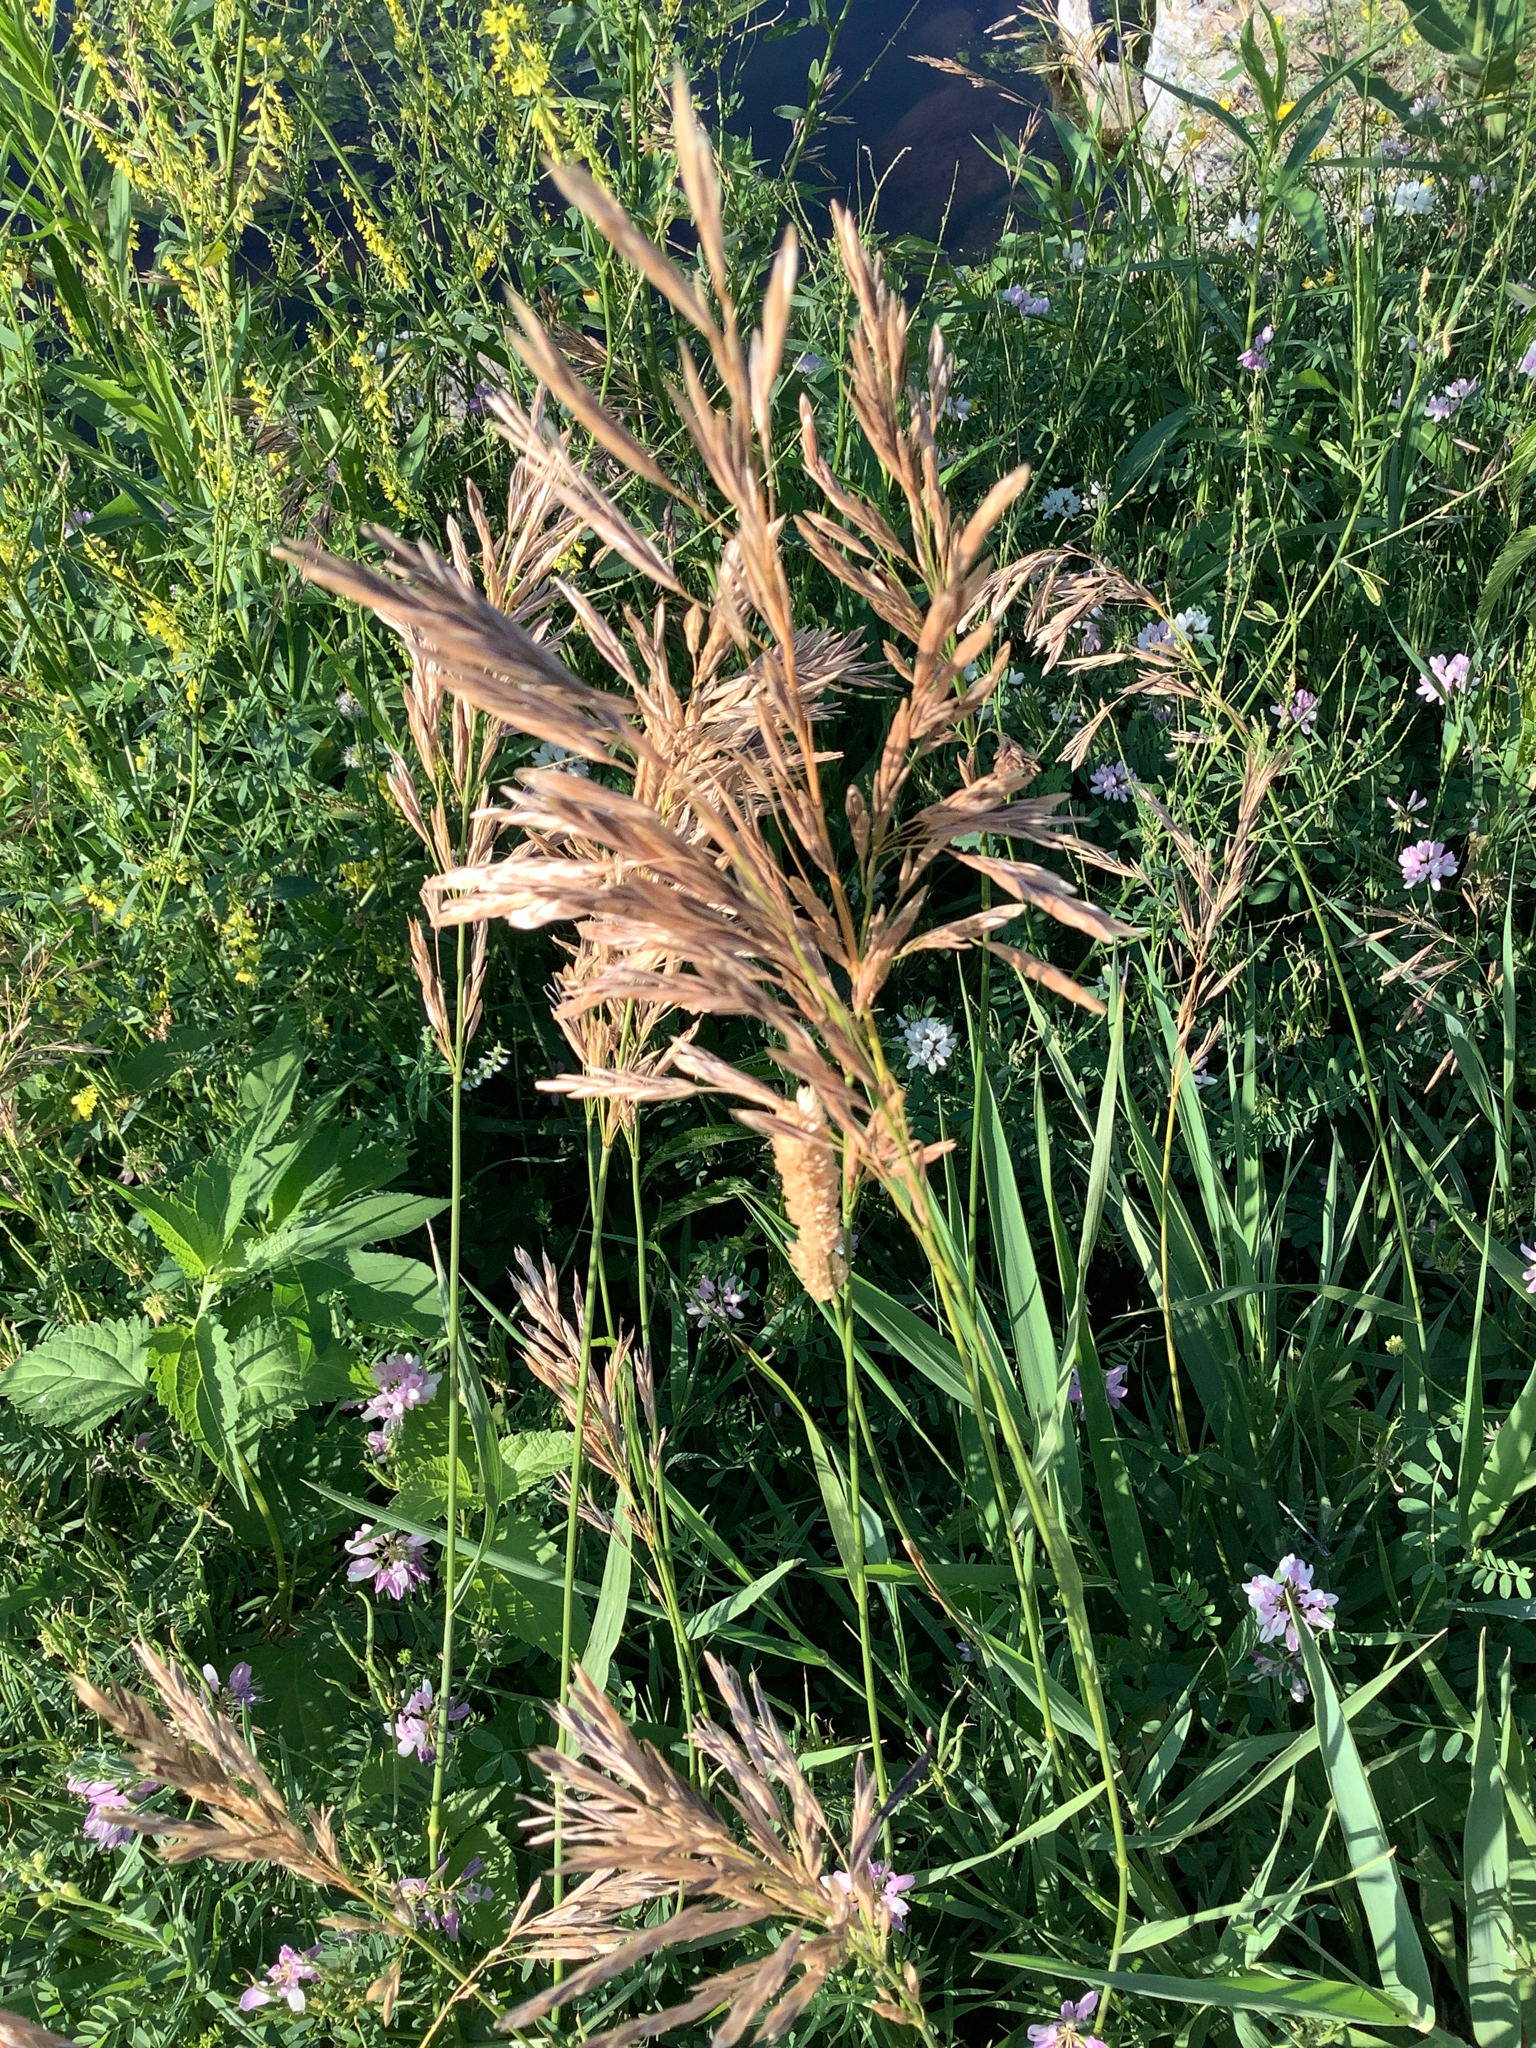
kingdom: Plantae
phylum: Tracheophyta
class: Liliopsida
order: Poales
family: Poaceae
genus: Bromus
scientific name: Bromus inermis
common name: Smooth brome
